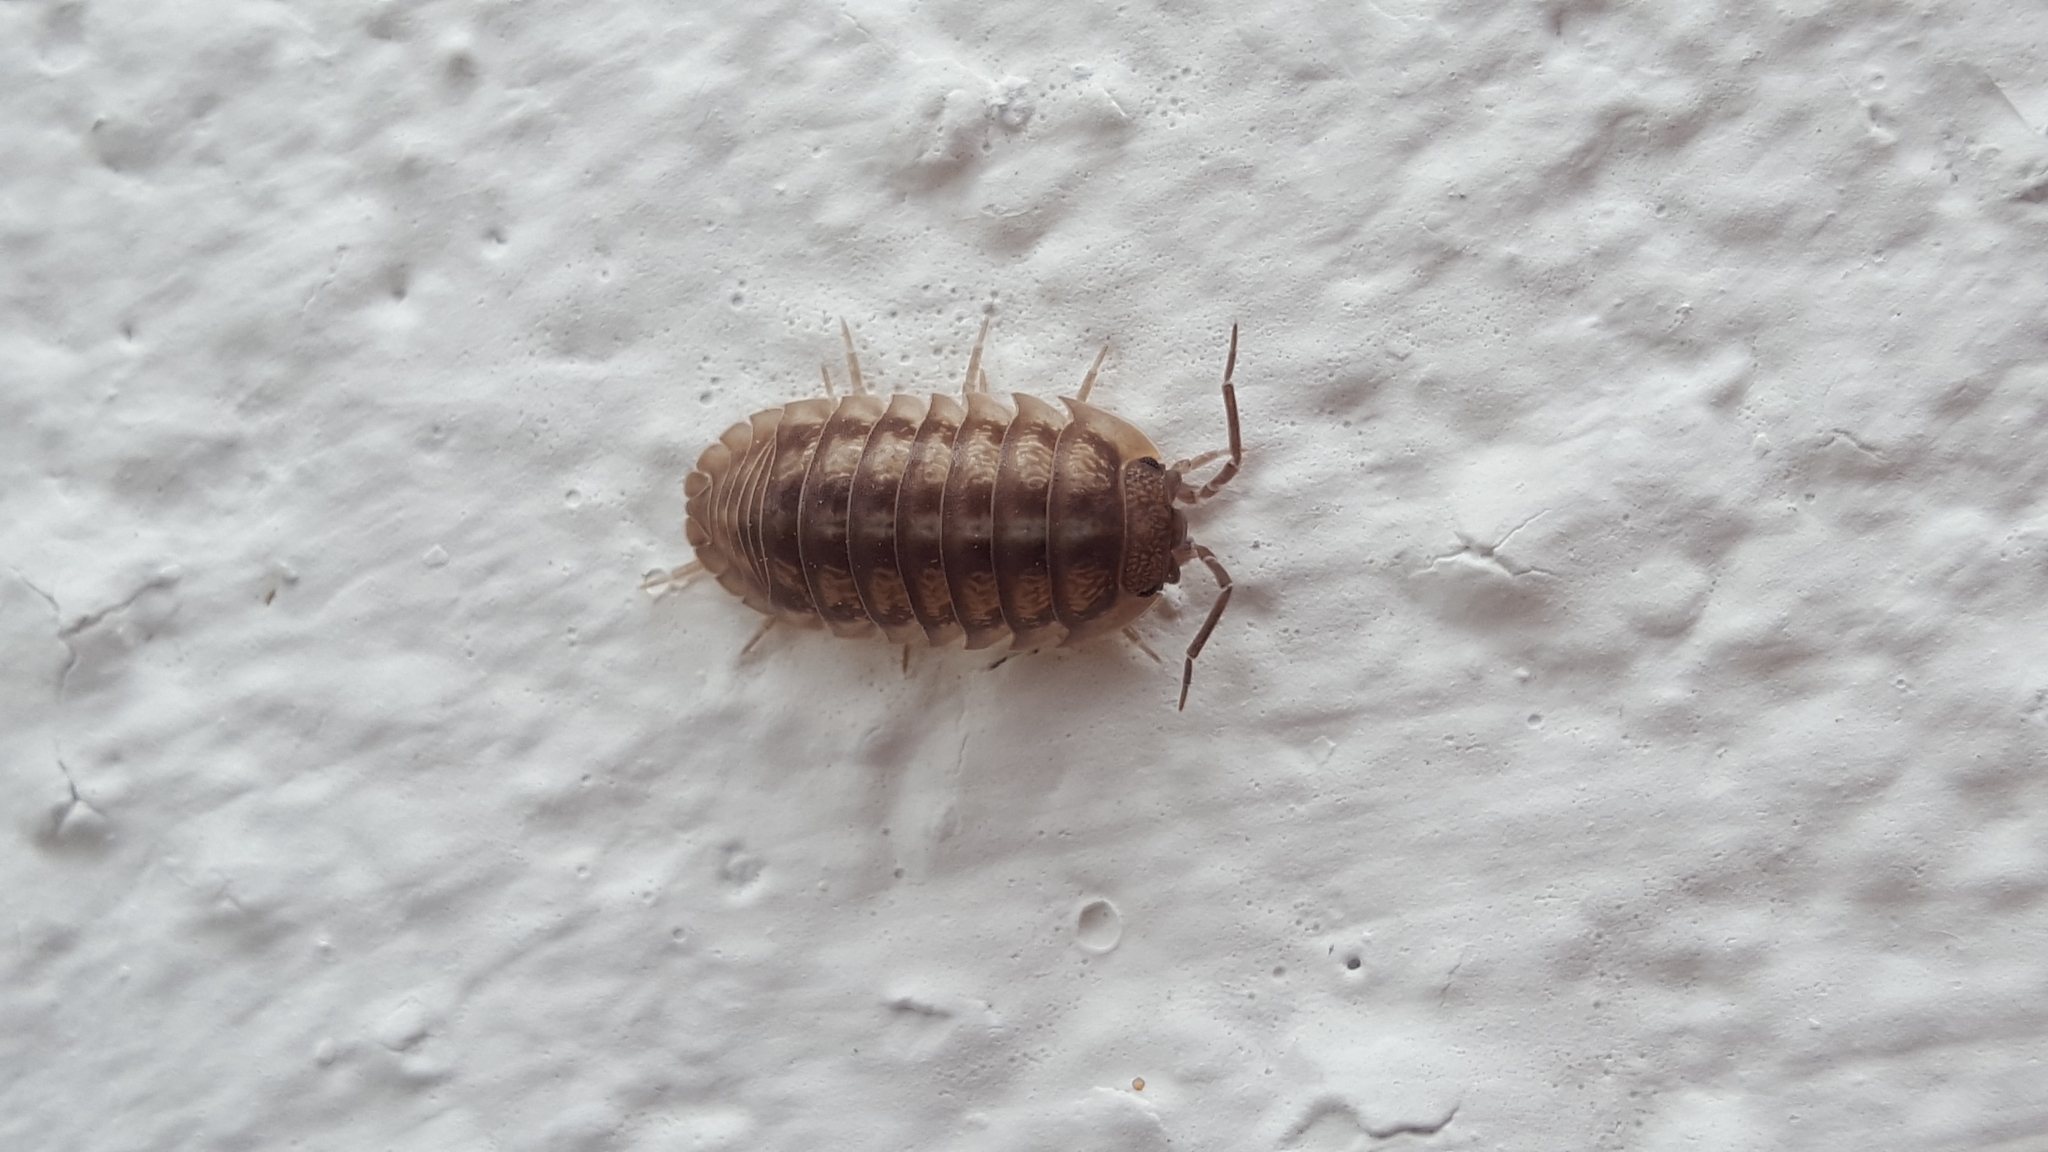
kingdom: Animalia
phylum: Arthropoda
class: Malacostraca
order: Isopoda
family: Armadillidiidae
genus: Armadillidium
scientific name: Armadillidium nasatum
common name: Isopod
